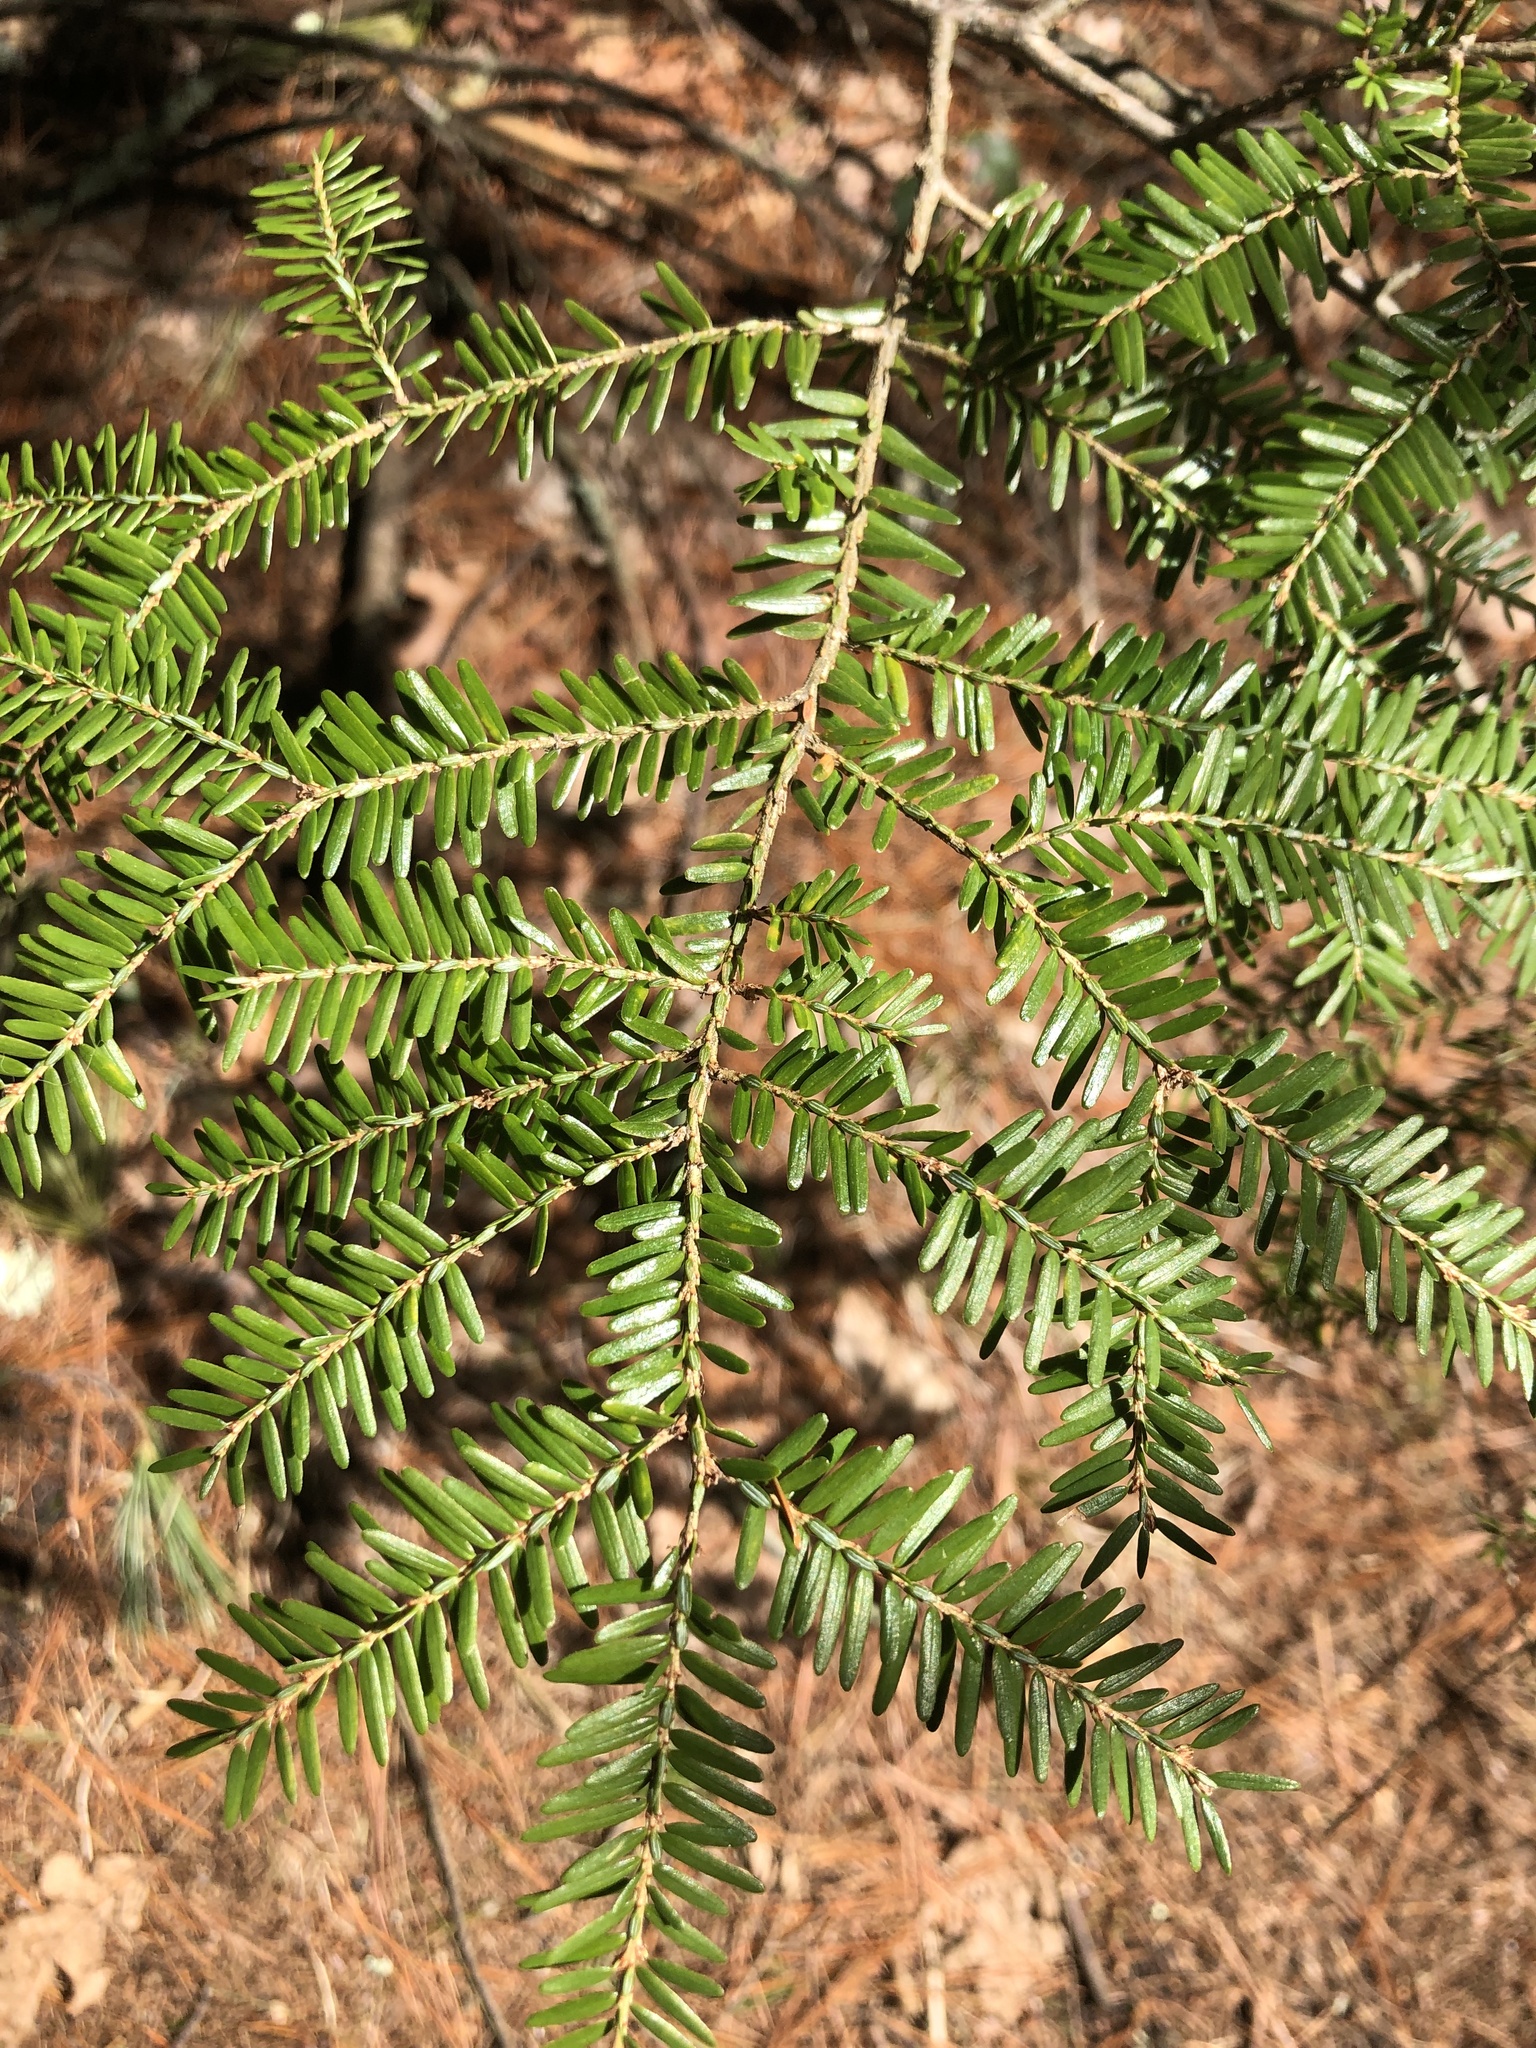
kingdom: Plantae
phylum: Tracheophyta
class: Pinopsida
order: Pinales
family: Pinaceae
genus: Tsuga
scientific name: Tsuga canadensis
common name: Eastern hemlock
